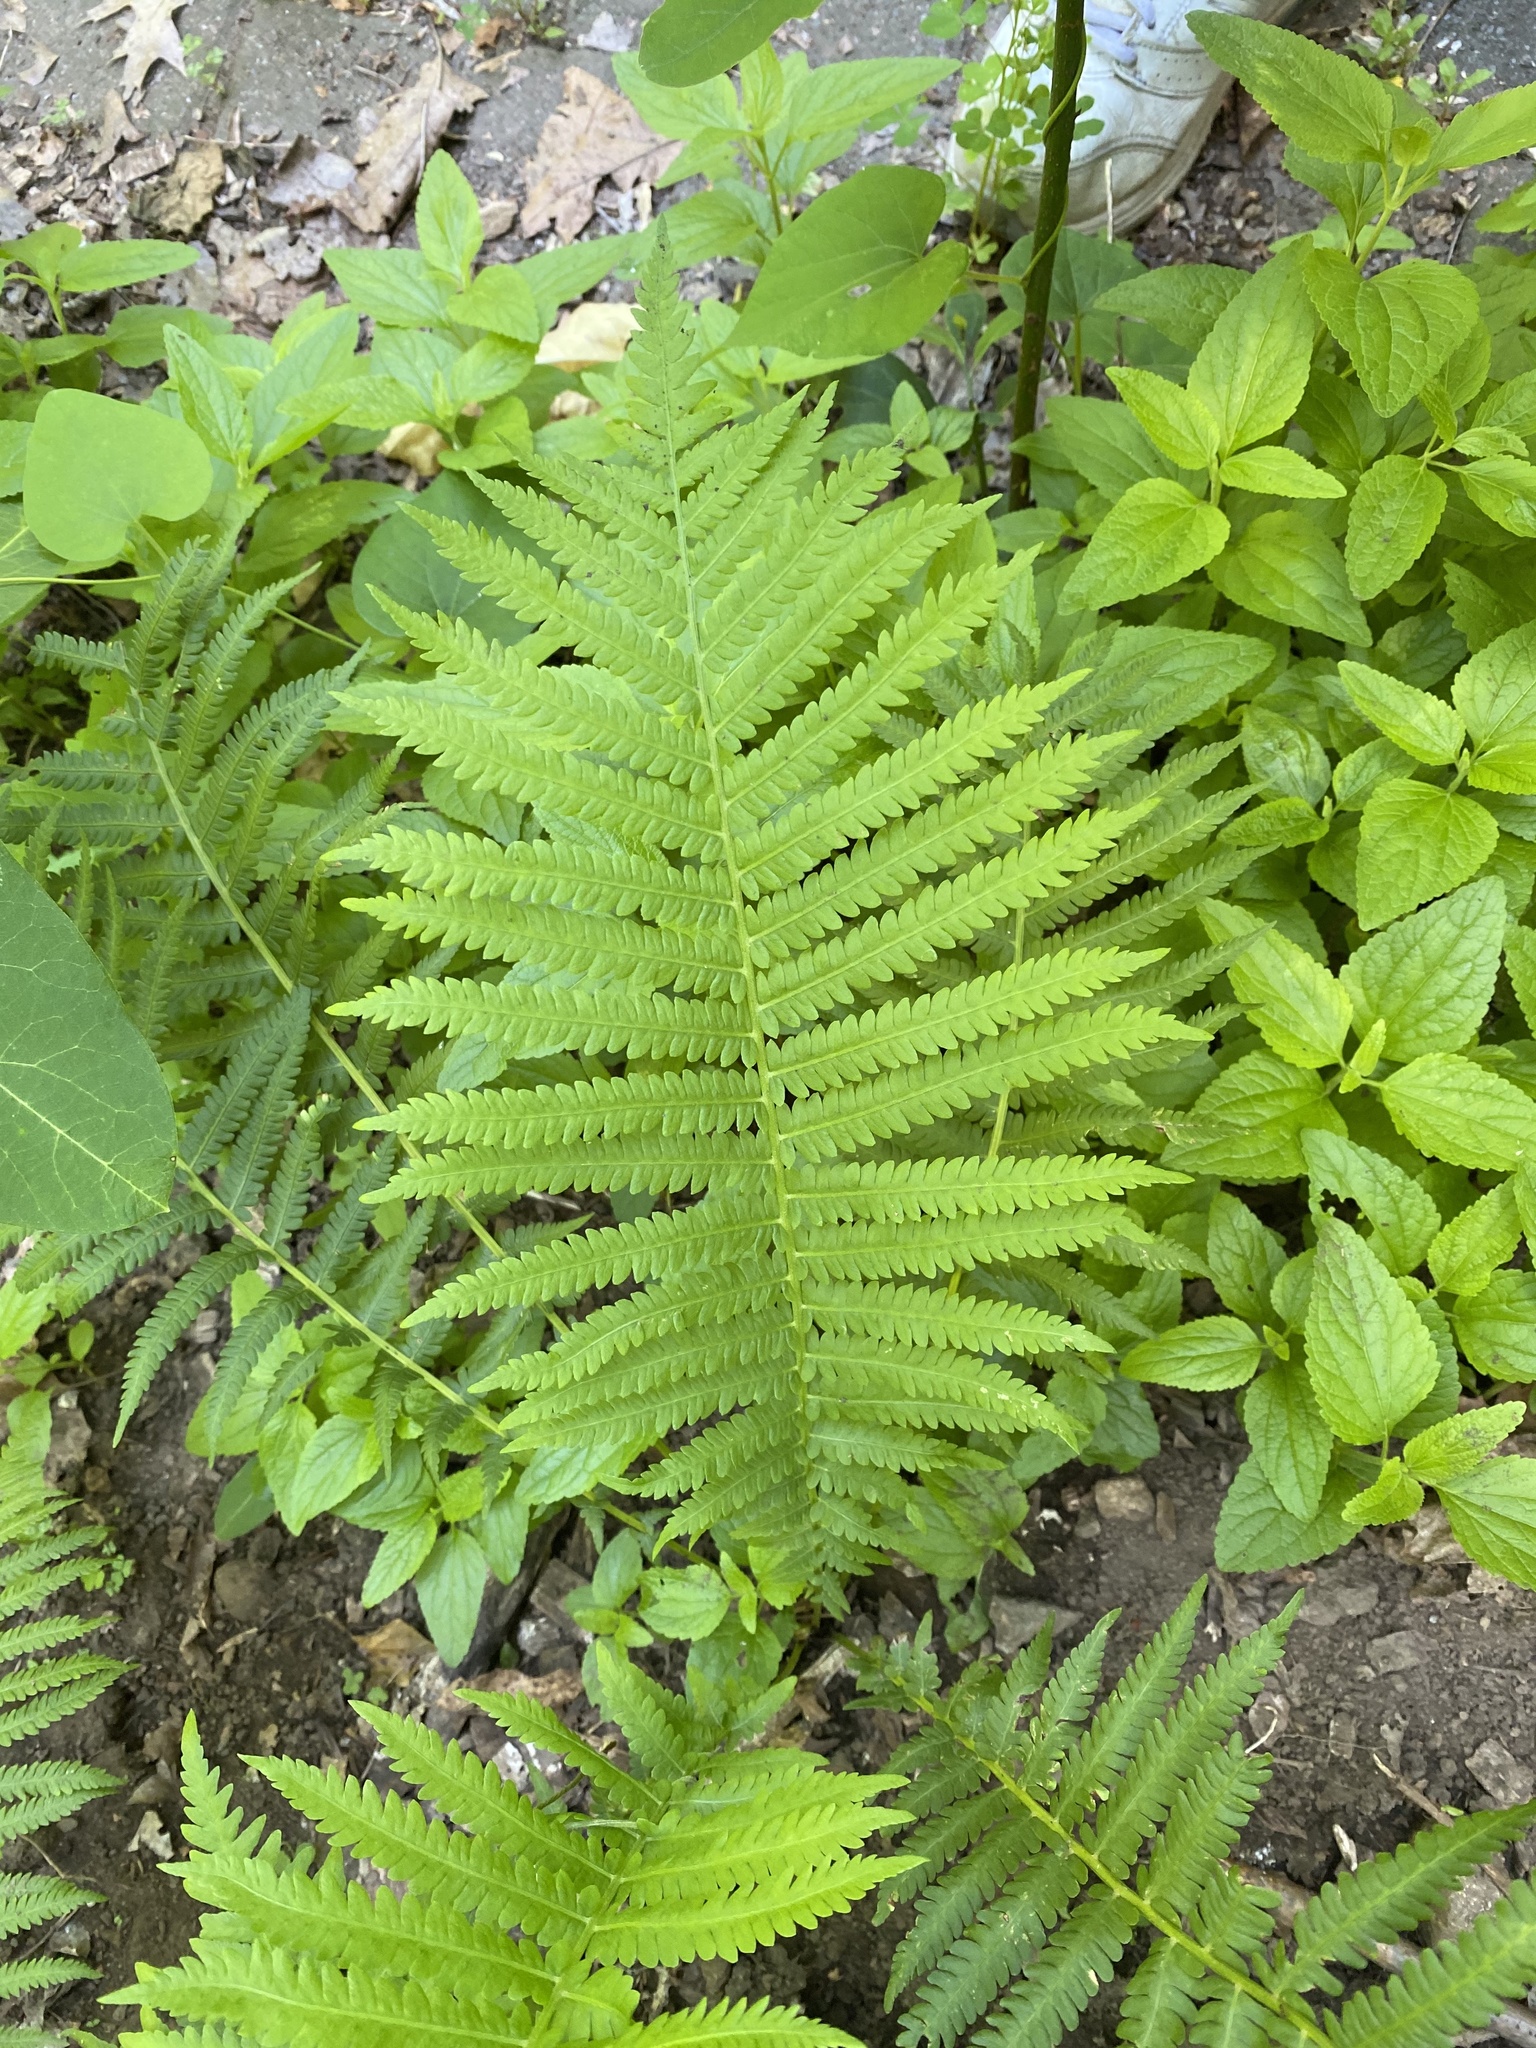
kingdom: Plantae
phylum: Tracheophyta
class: Polypodiopsida
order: Polypodiales
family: Thelypteridaceae
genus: Amauropelta
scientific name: Amauropelta noveboracensis
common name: New york fern
